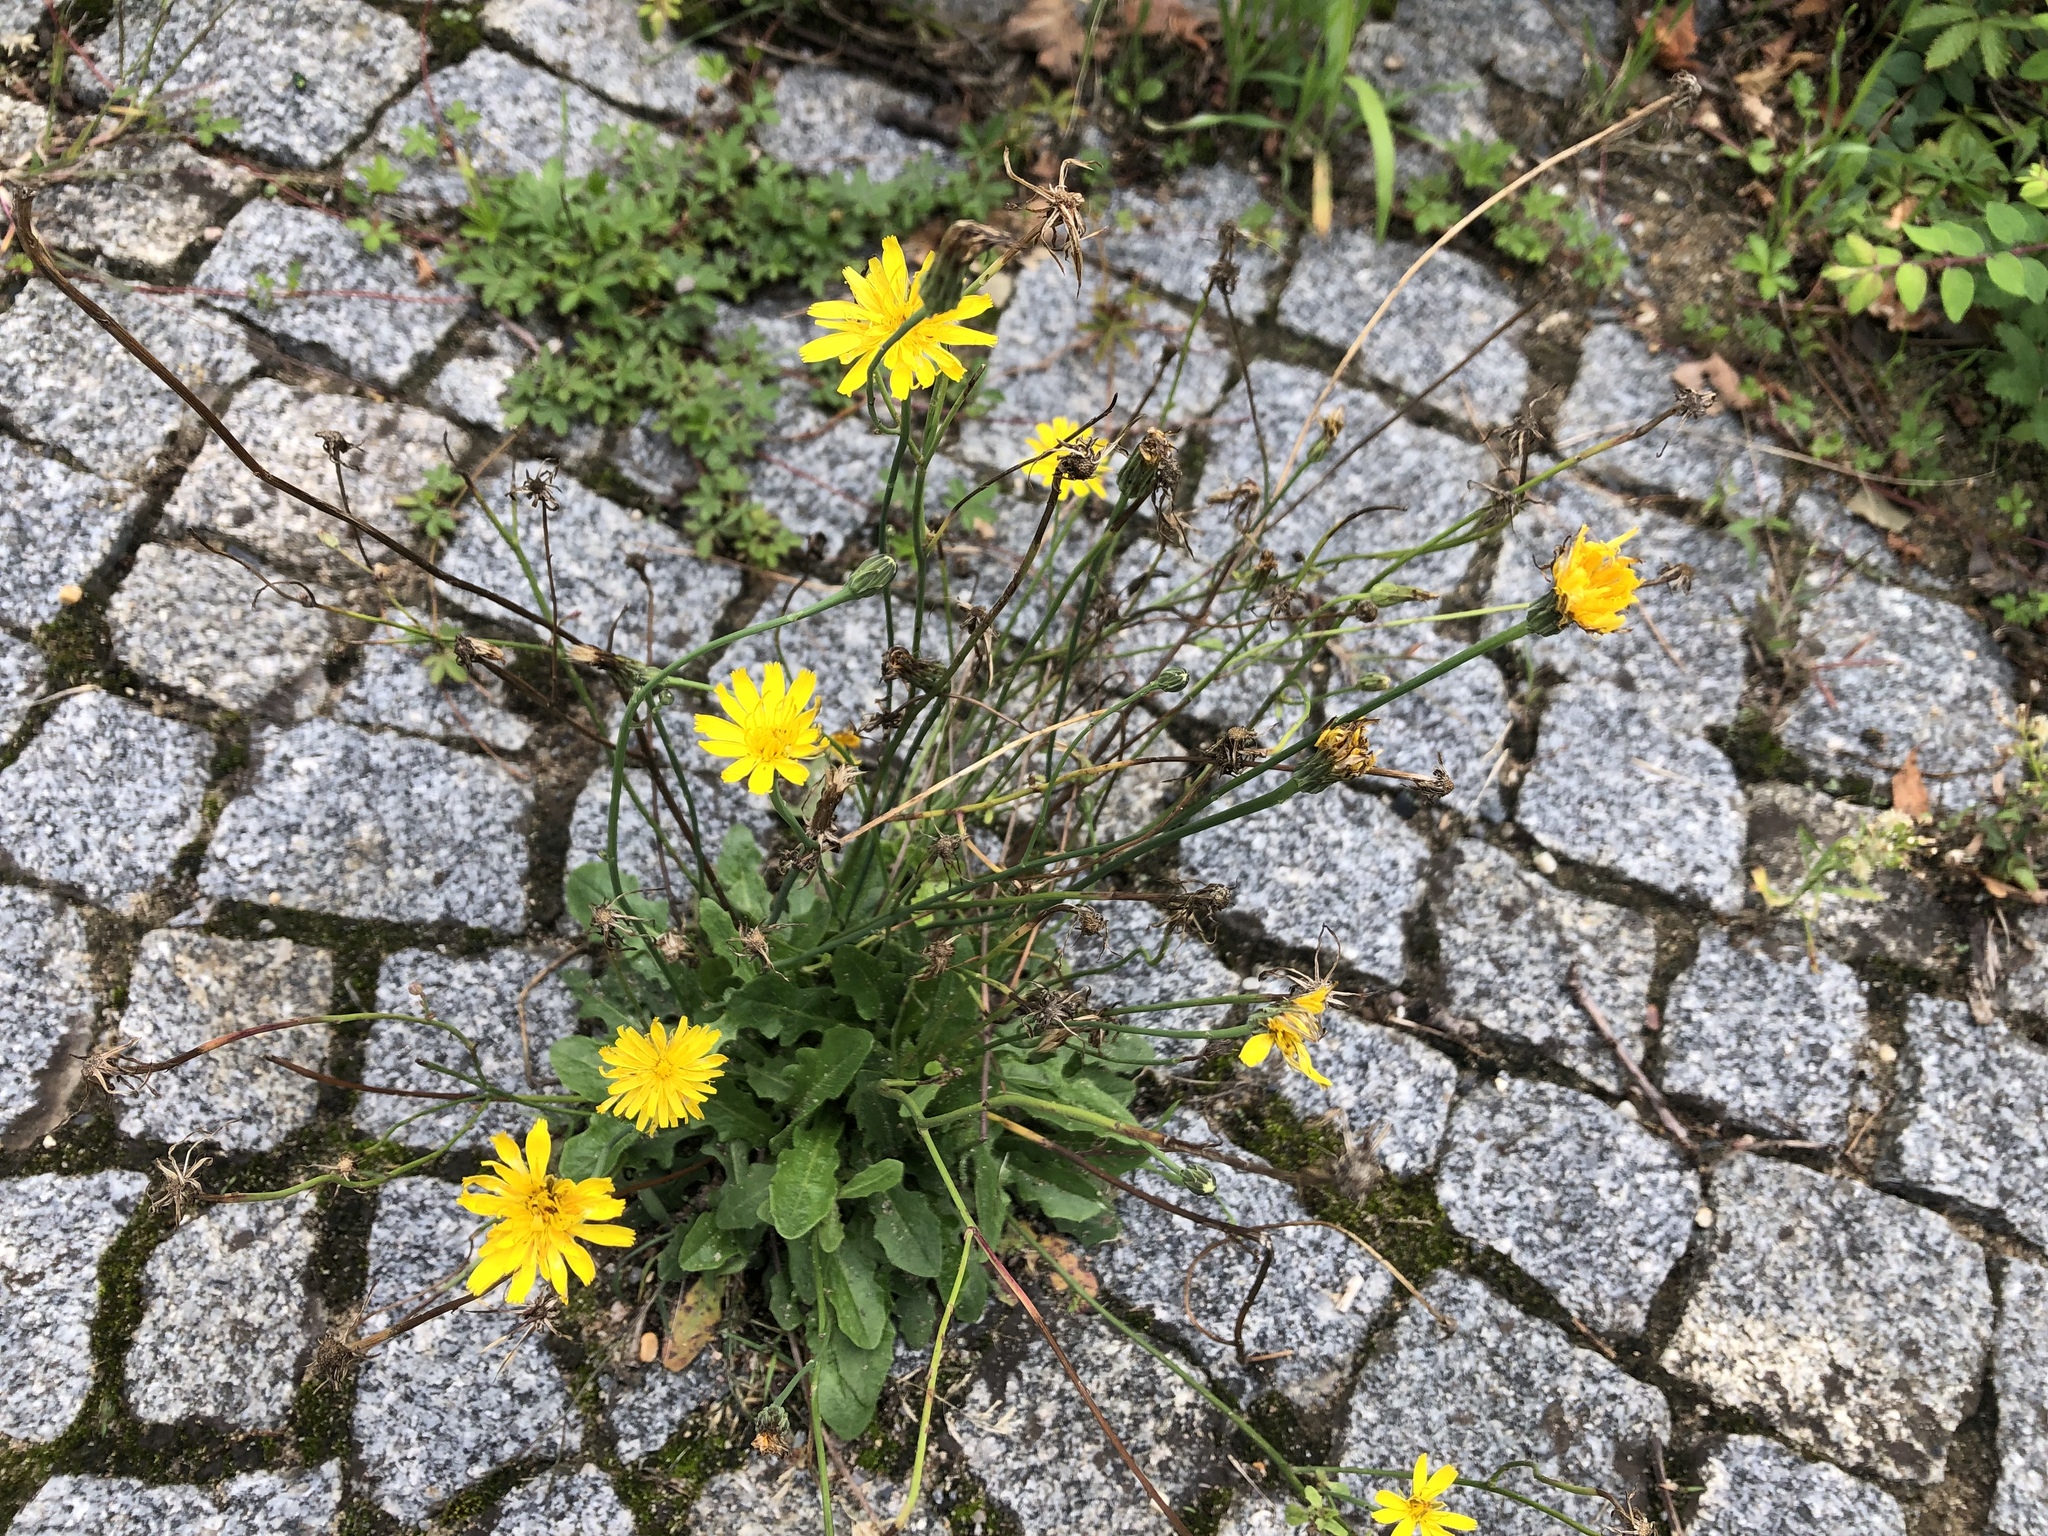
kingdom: Plantae
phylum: Tracheophyta
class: Magnoliopsida
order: Asterales
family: Asteraceae
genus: Hypochaeris
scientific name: Hypochaeris radicata
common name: Flatweed
